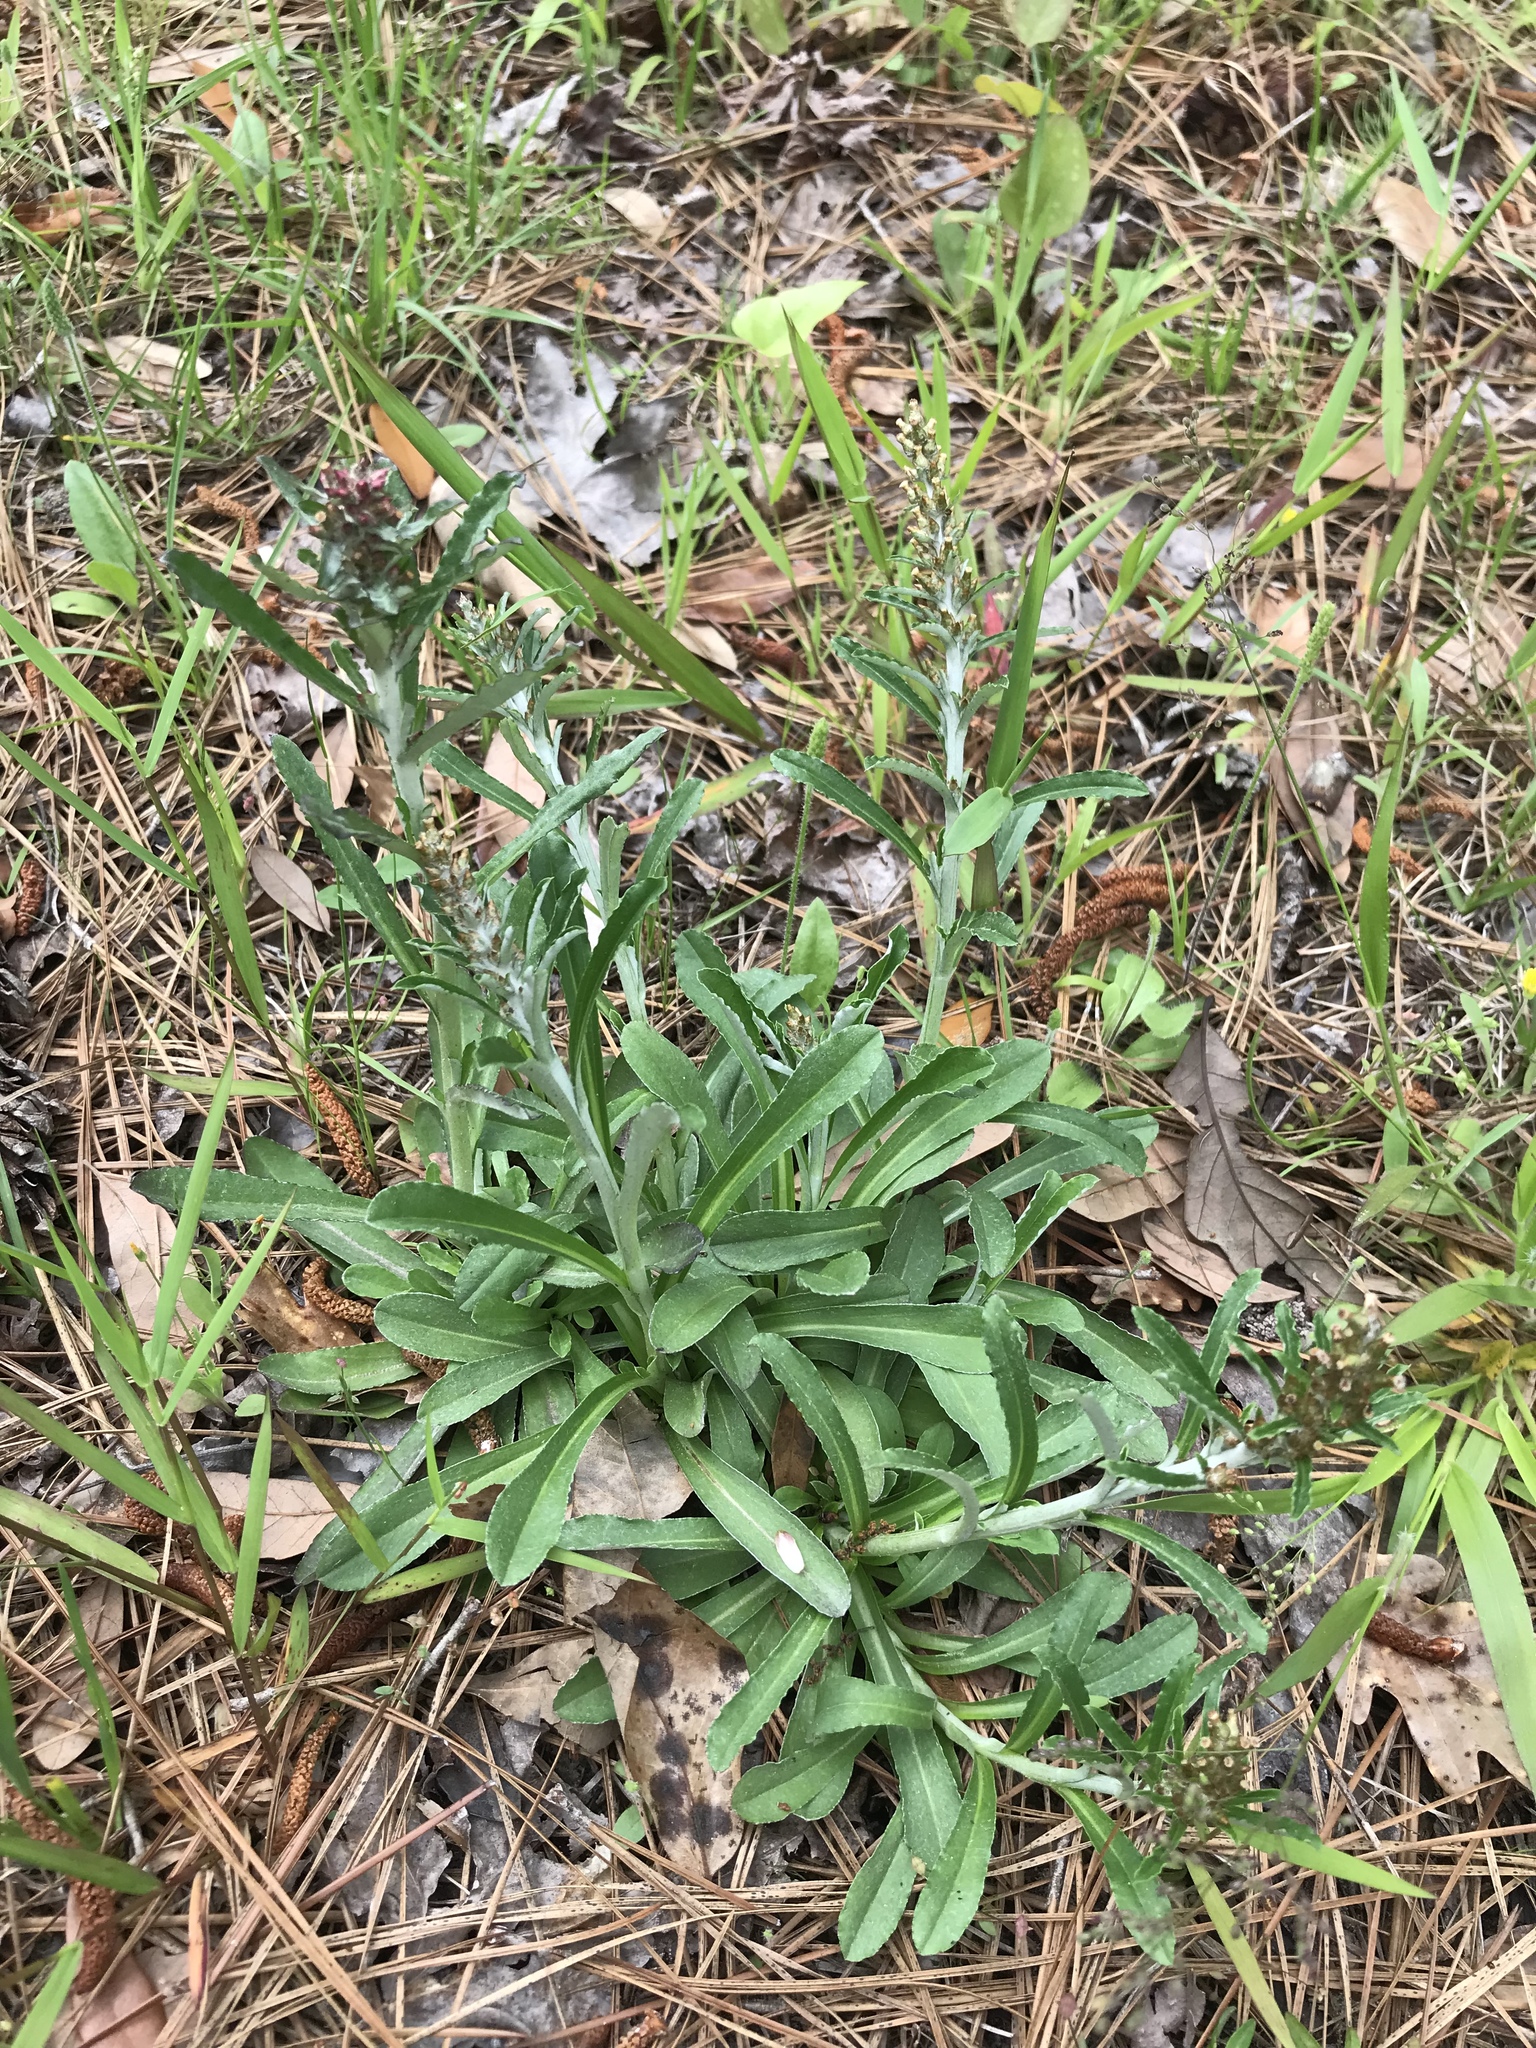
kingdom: Plantae
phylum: Tracheophyta
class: Magnoliopsida
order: Asterales
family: Asteraceae
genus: Gamochaeta
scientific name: Gamochaeta americana
